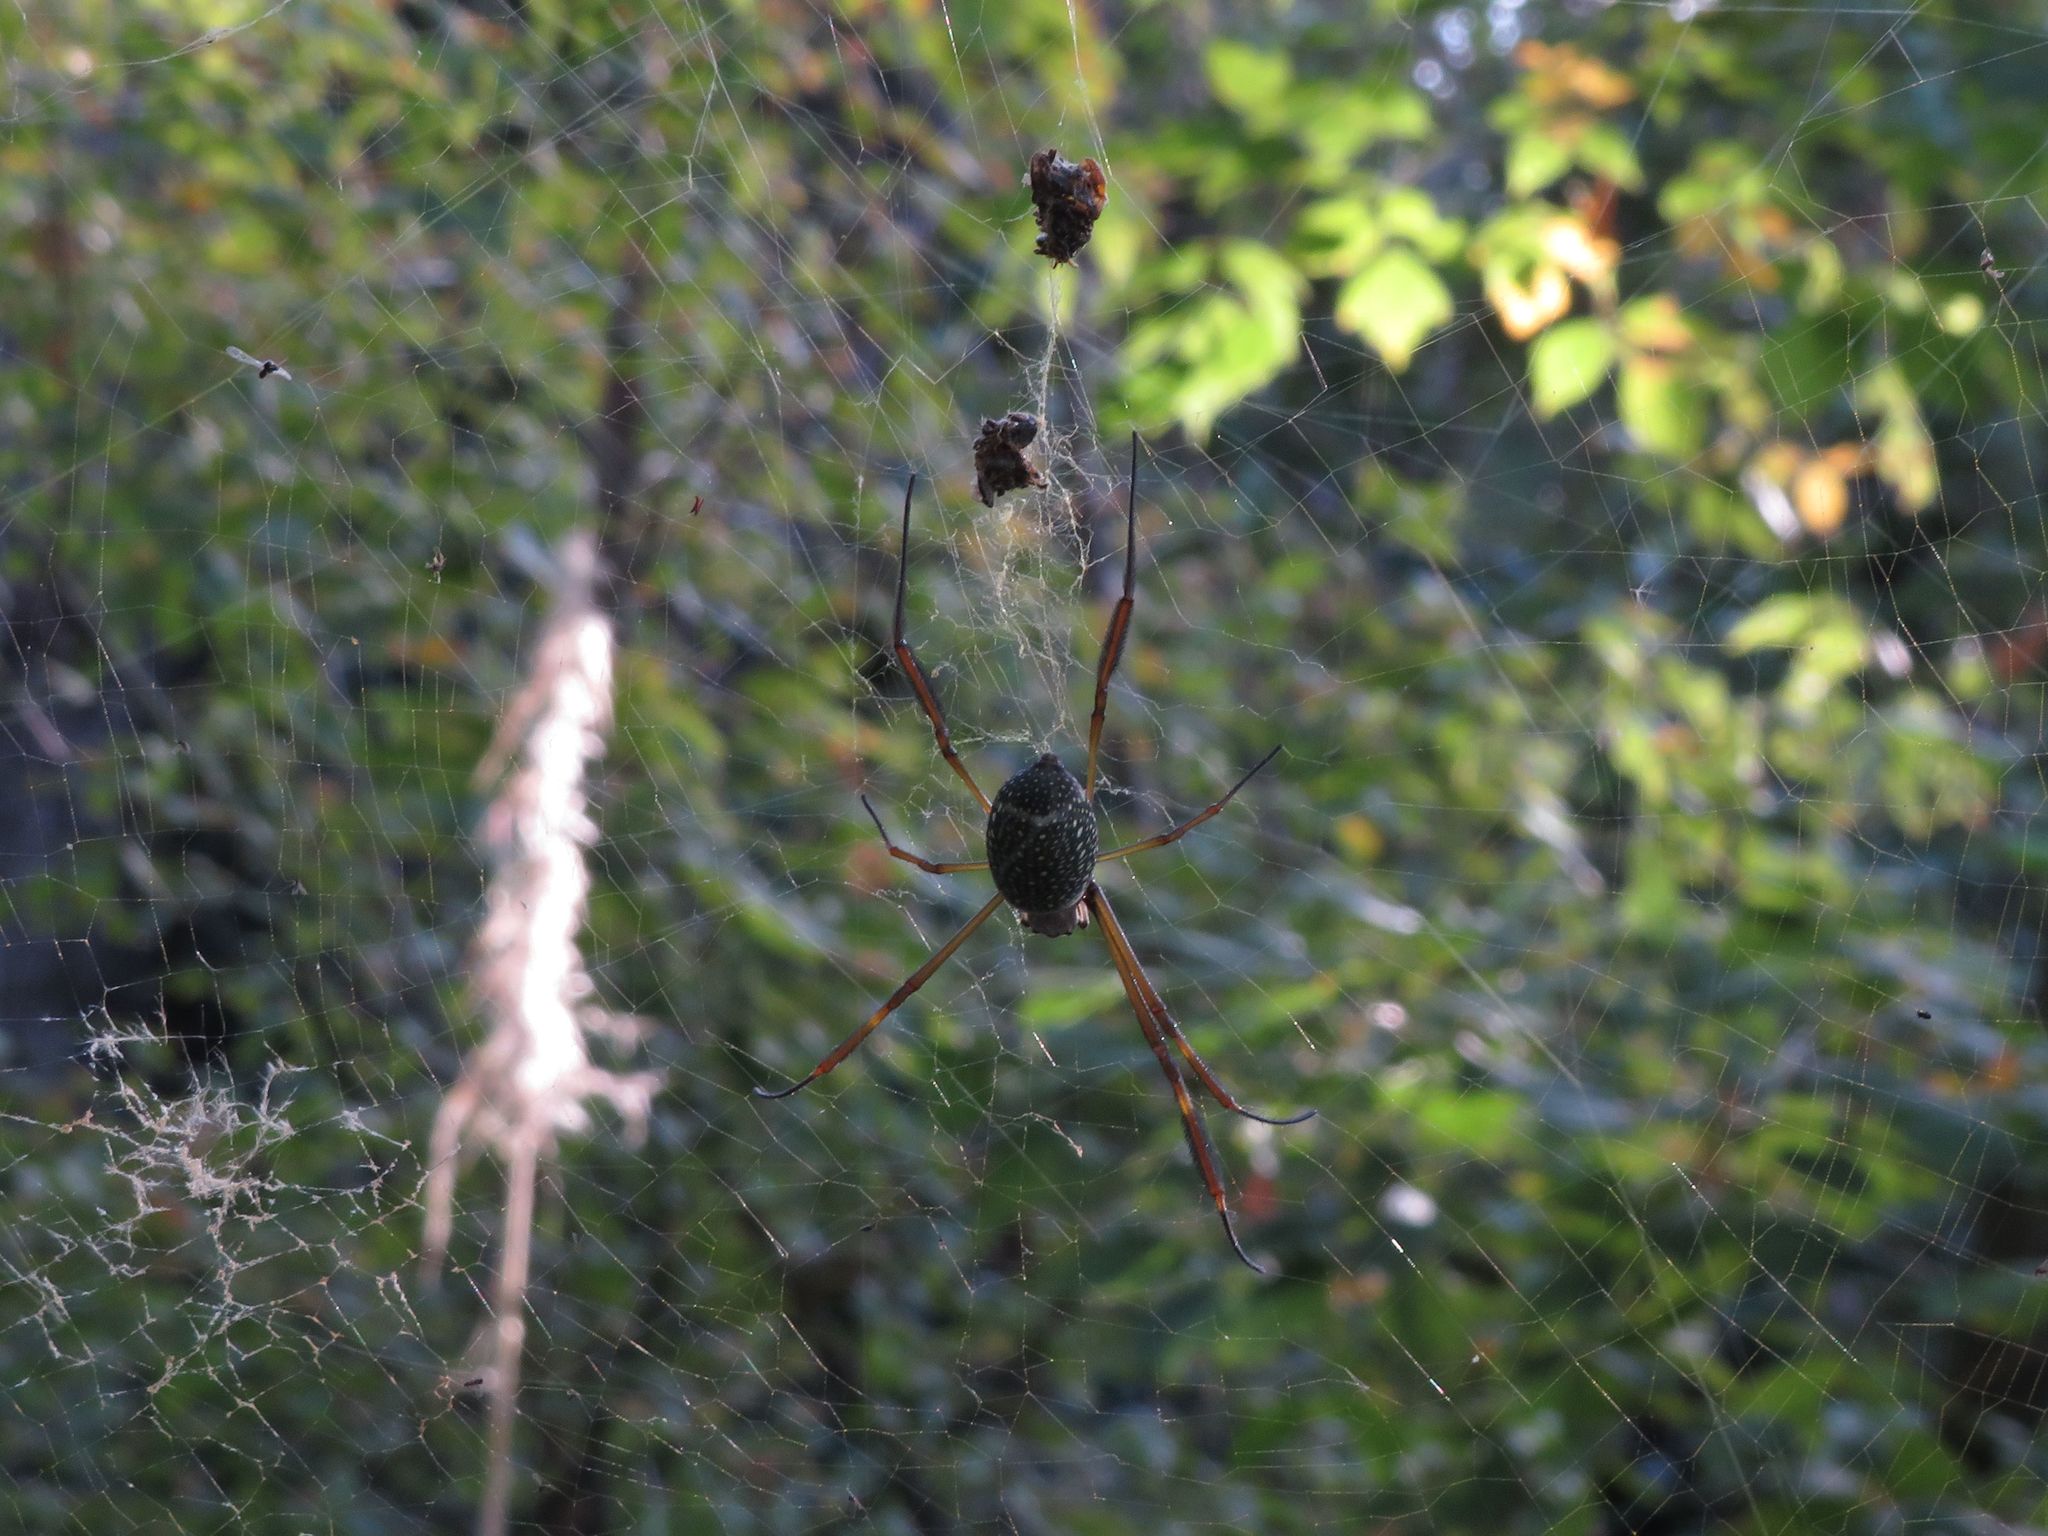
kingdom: Animalia
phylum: Arthropoda
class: Arachnida
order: Araneae
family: Araneidae
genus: Trichonephila
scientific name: Trichonephila clavipes
